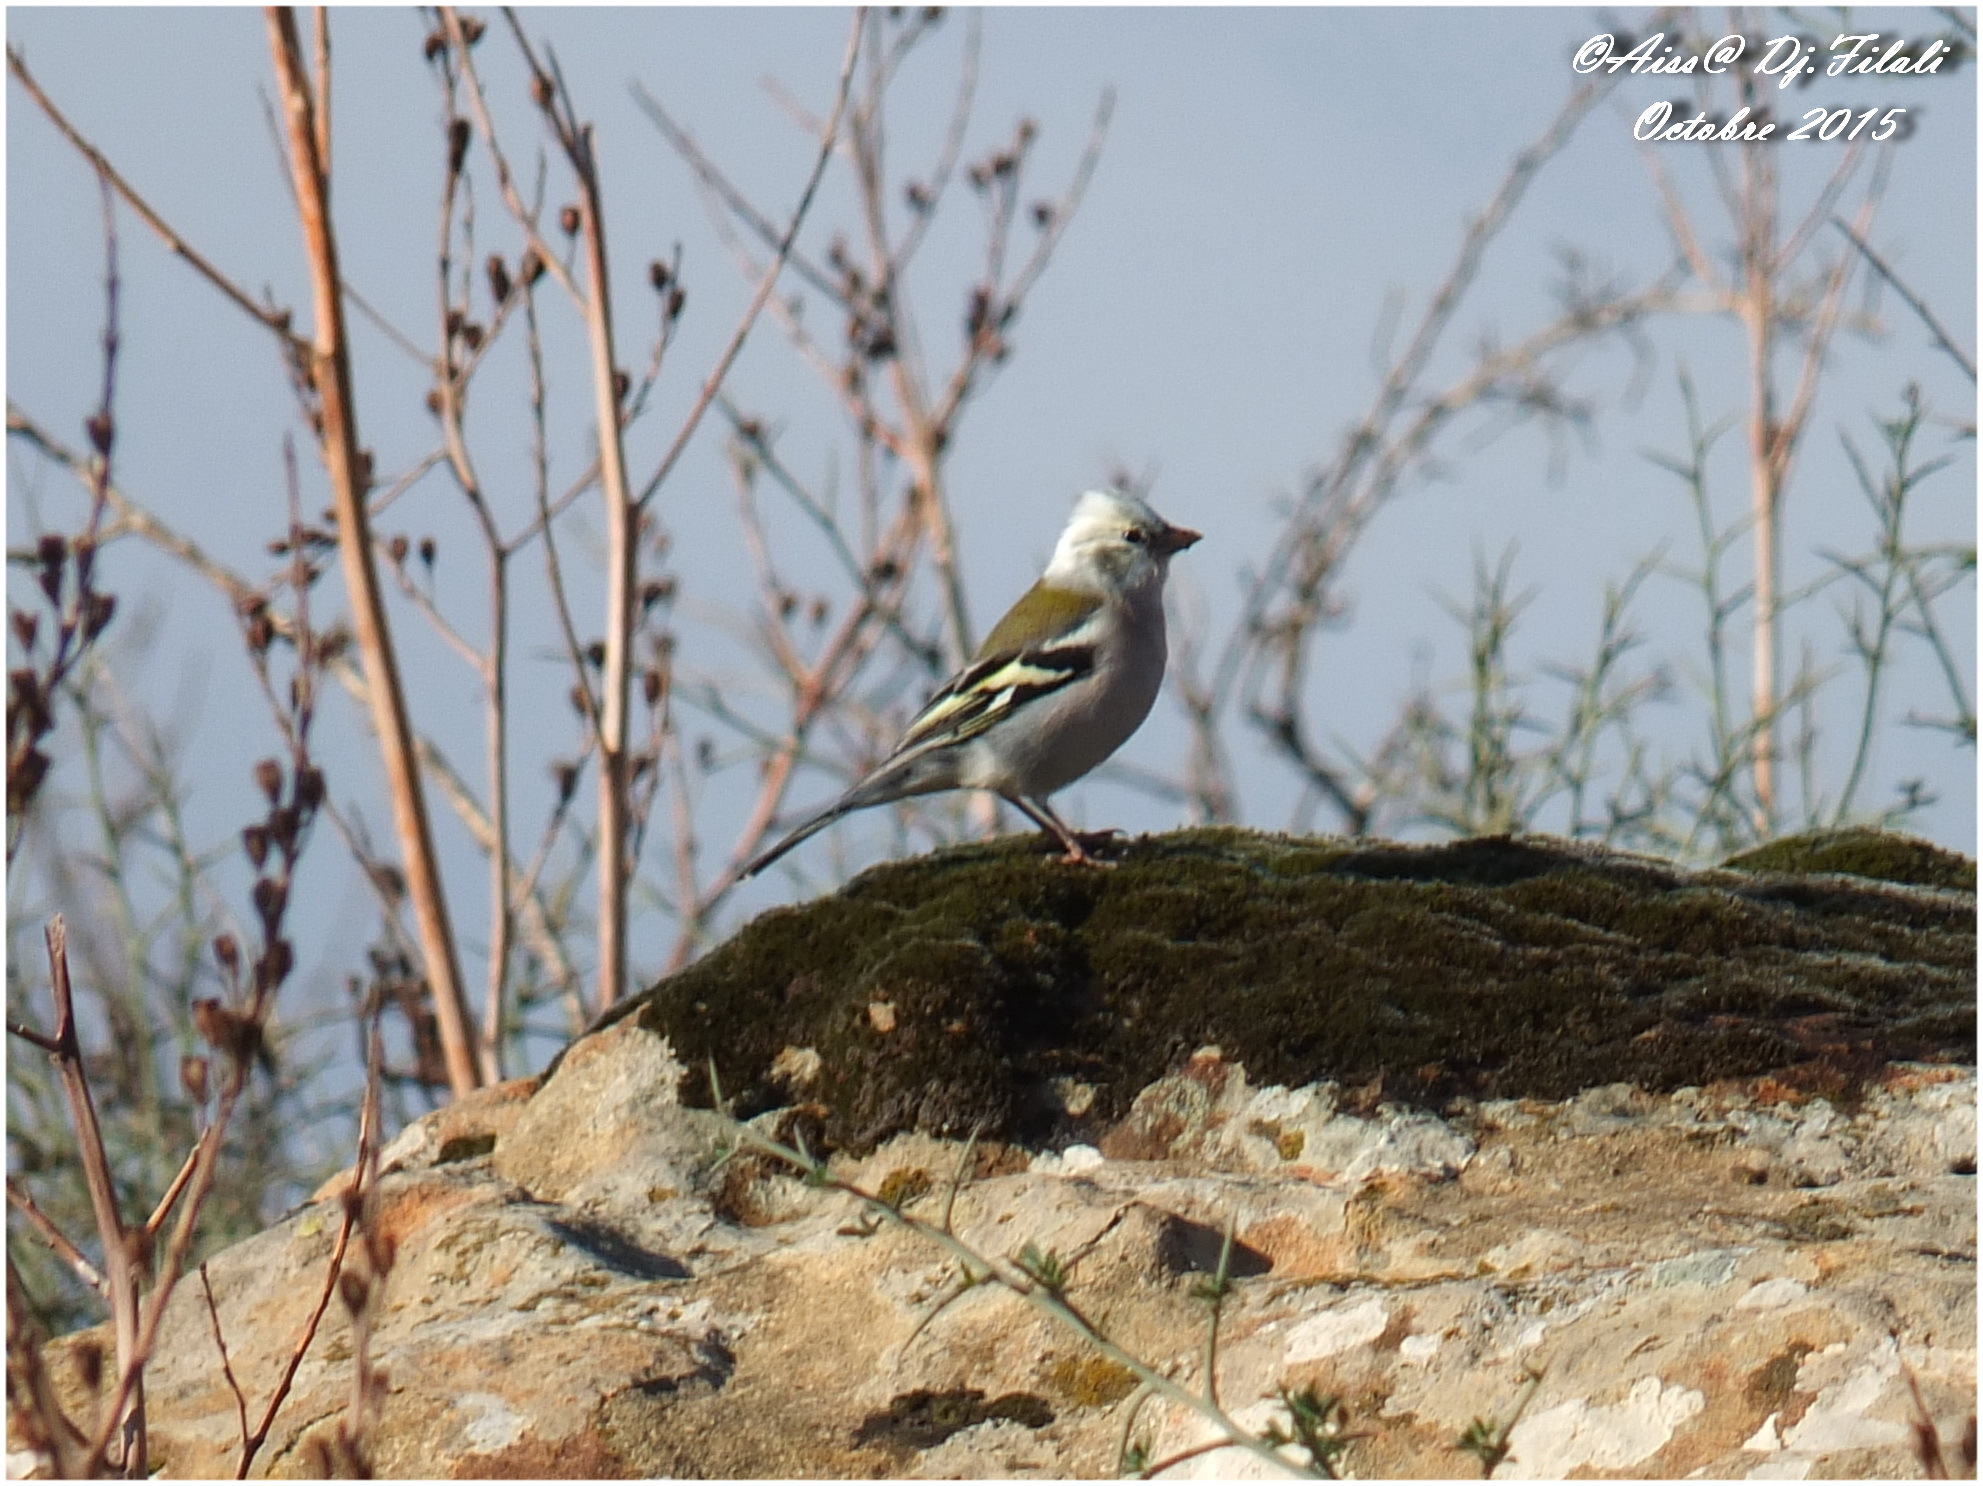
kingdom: Animalia
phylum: Chordata
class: Aves
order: Passeriformes
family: Fringillidae
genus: Fringilla
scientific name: Fringilla spodiogenys
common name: African chaffinch
